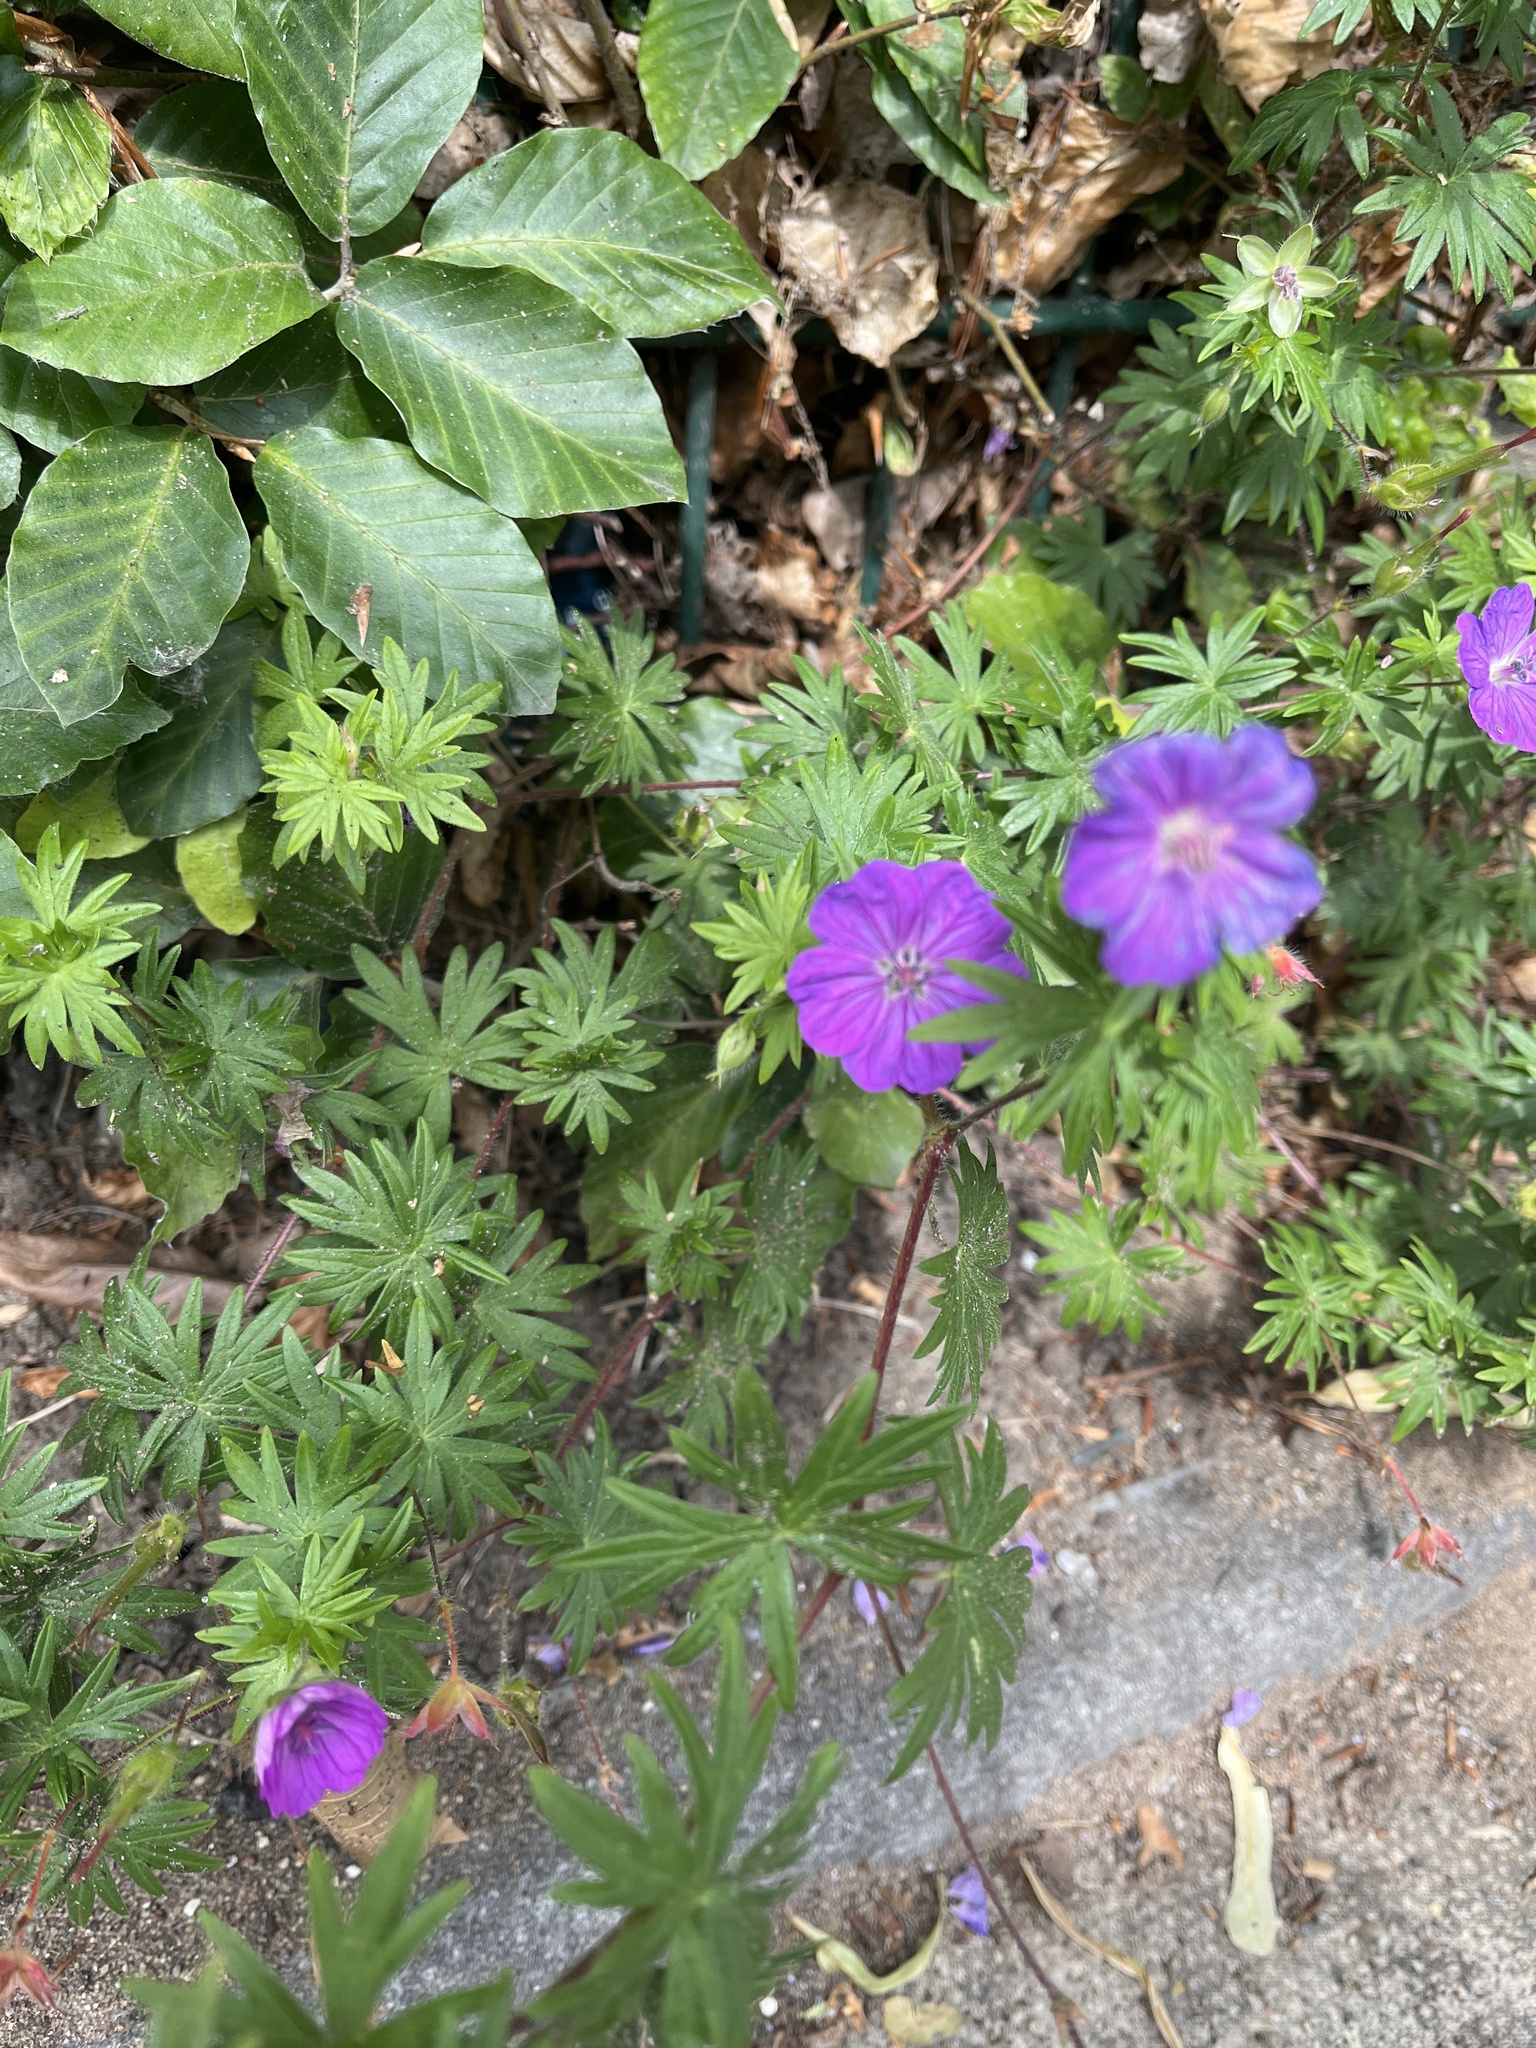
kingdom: Plantae
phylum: Tracheophyta
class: Magnoliopsida
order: Geraniales
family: Geraniaceae
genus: Geranium
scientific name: Geranium sanguineum
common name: Bloody crane's-bill
